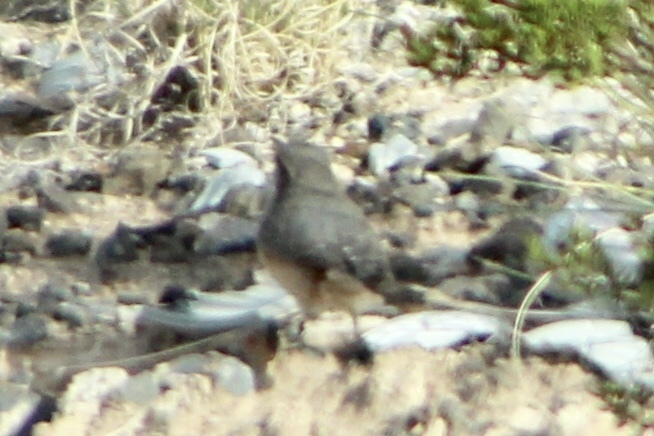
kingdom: Animalia
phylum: Chordata
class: Aves
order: Passeriformes
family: Troglodytidae
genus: Salpinctes
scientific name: Salpinctes obsoletus
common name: Rock wren
